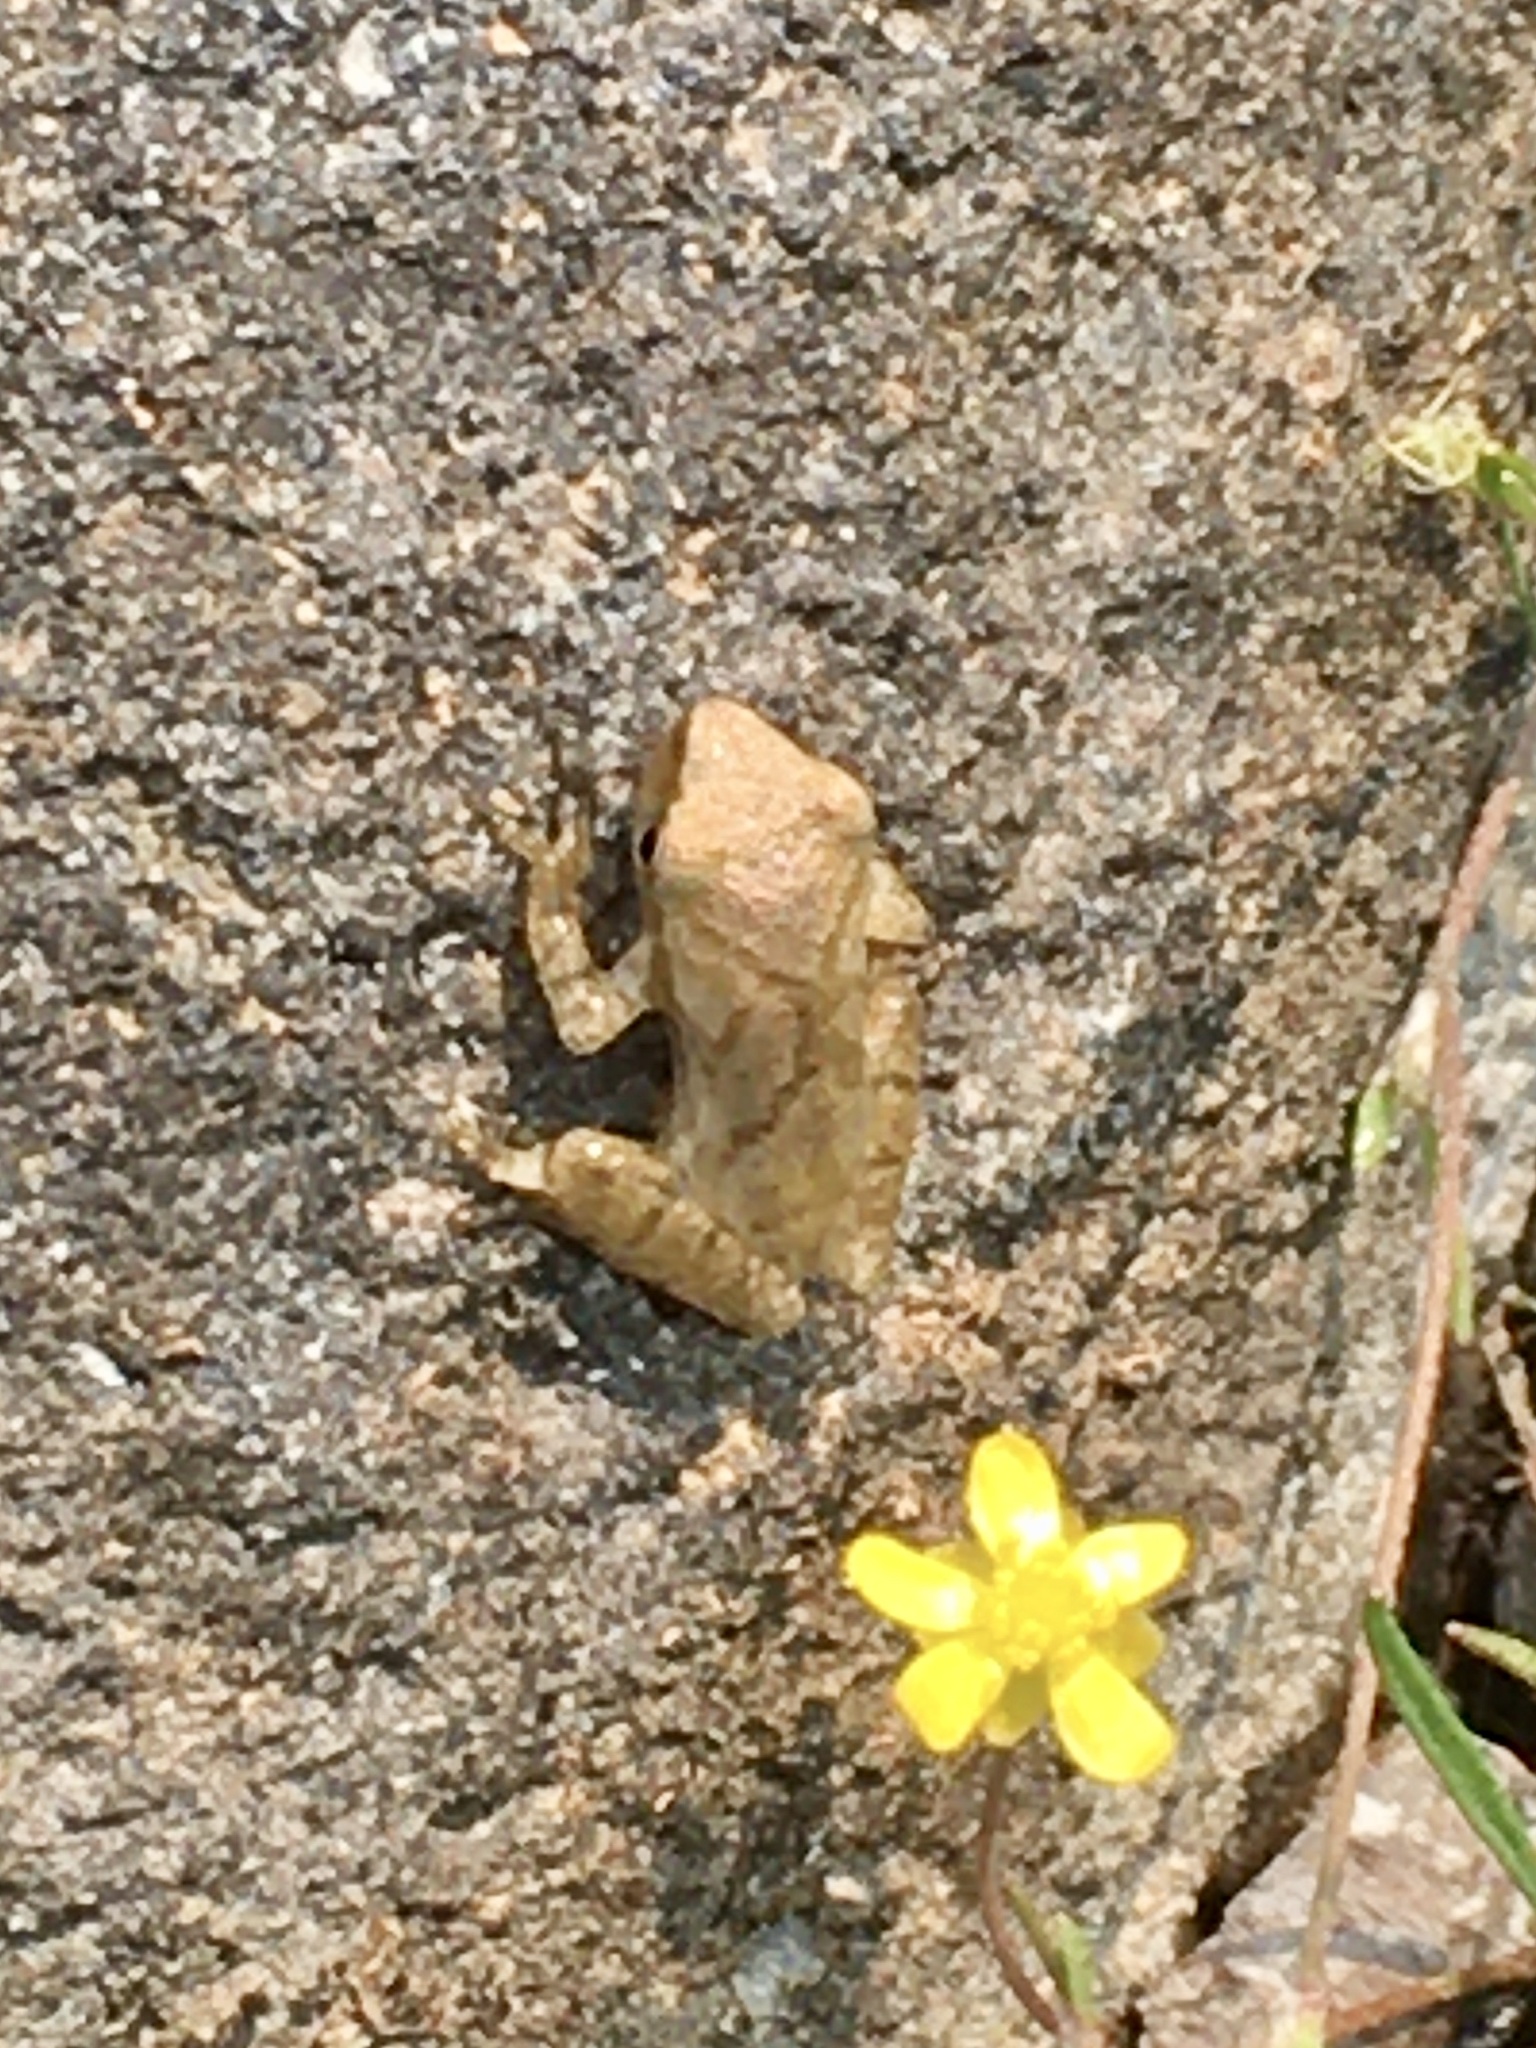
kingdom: Animalia
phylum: Chordata
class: Amphibia
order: Anura
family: Hylidae
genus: Pseudacris
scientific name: Pseudacris crucifer
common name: Spring peeper
